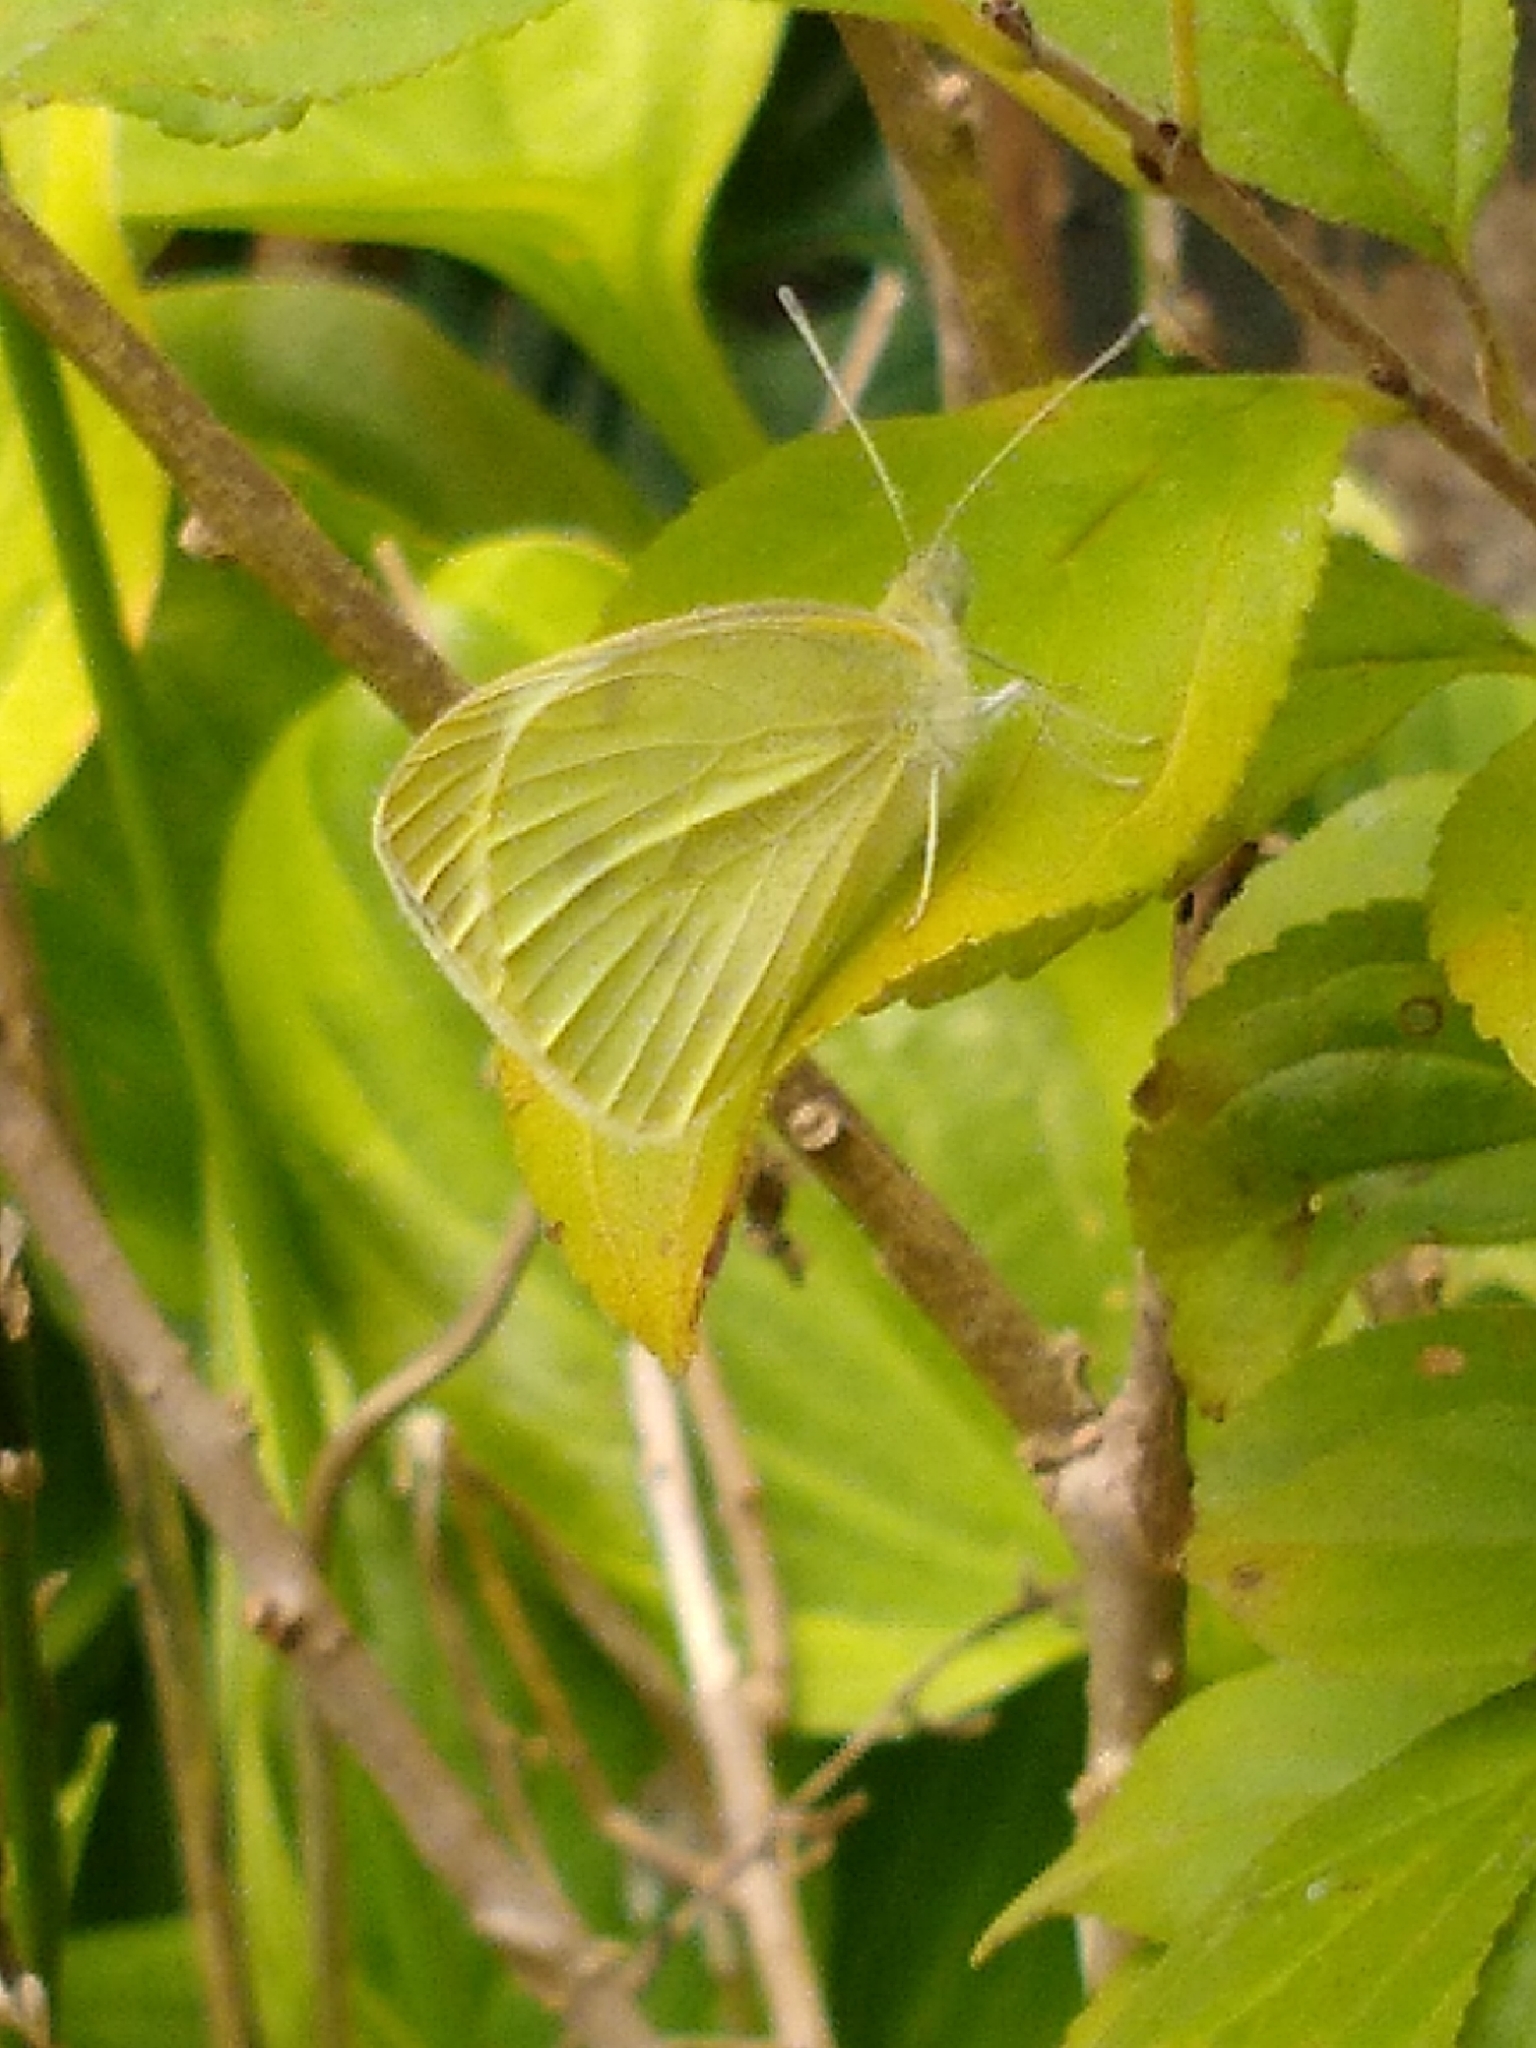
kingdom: Animalia
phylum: Arthropoda
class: Insecta
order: Lepidoptera
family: Pieridae
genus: Pieris
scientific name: Pieris rapae
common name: Small white
